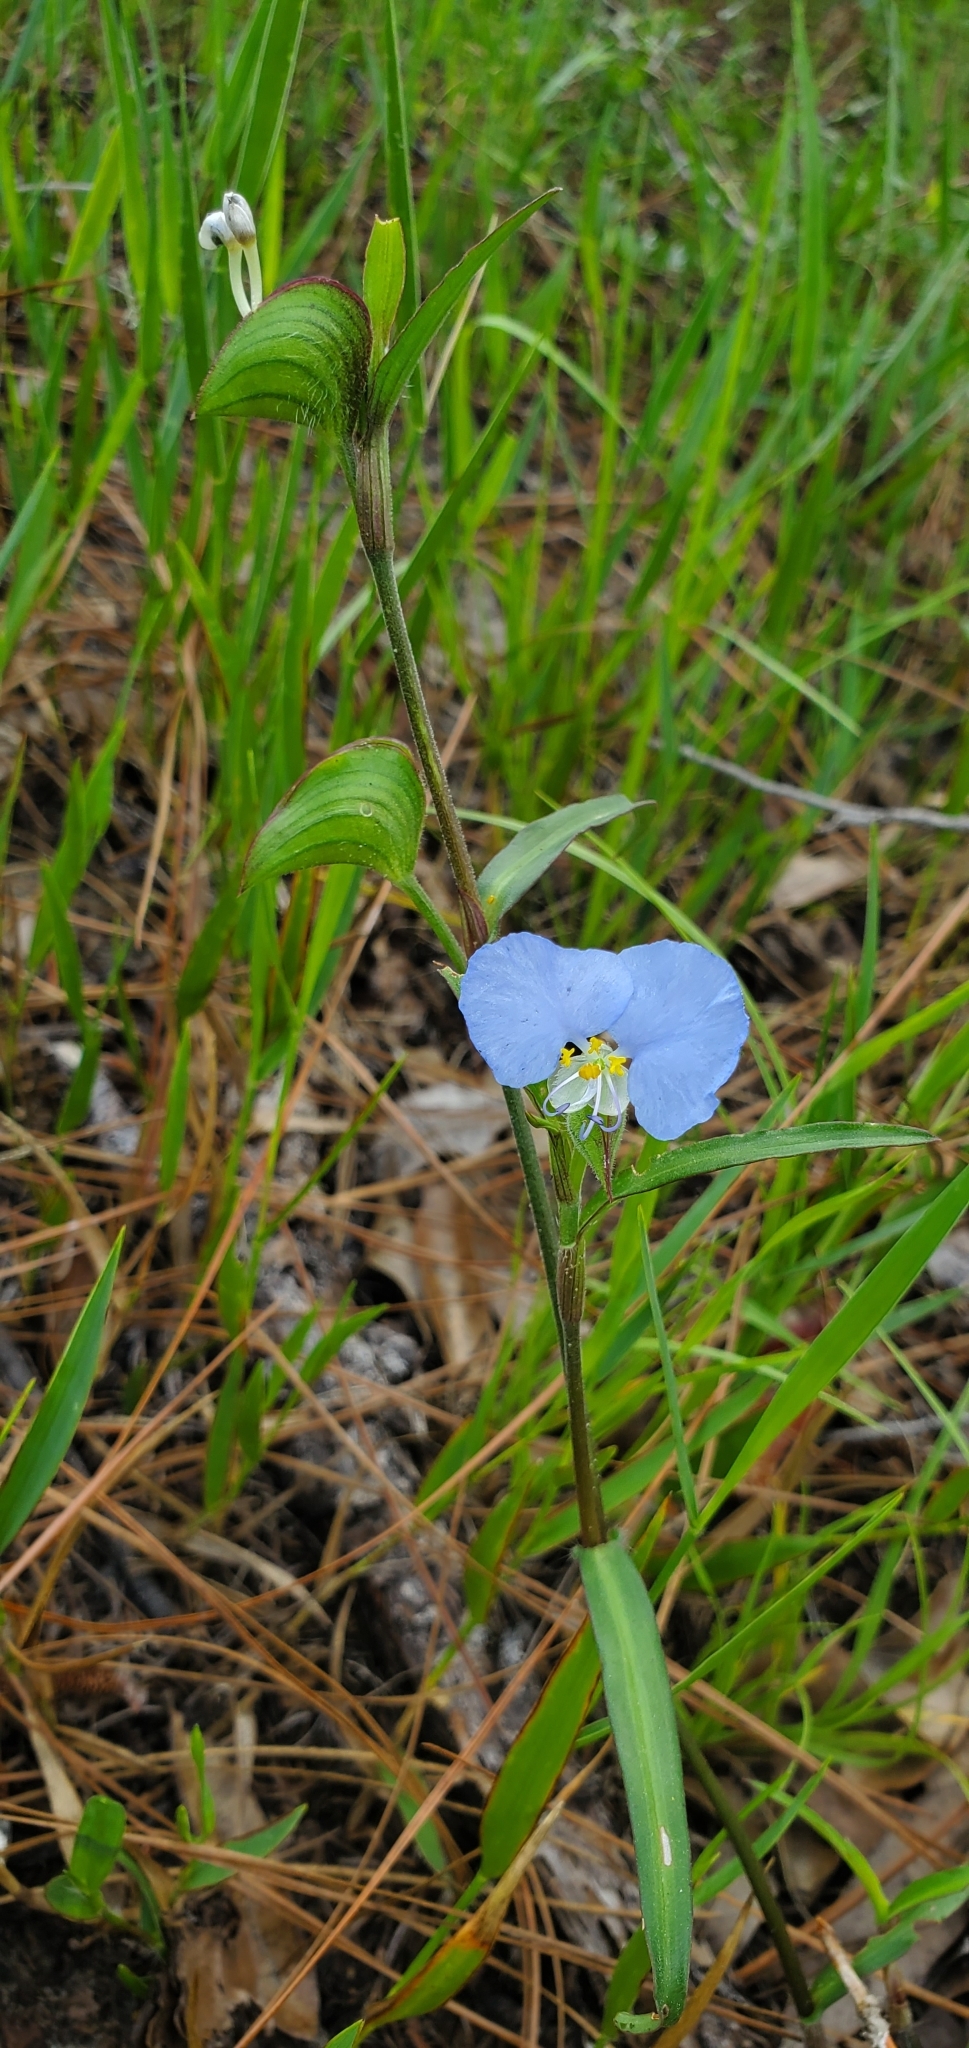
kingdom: Plantae
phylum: Tracheophyta
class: Liliopsida
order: Commelinales
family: Commelinaceae
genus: Commelina
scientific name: Commelina erecta
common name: Blousel blommetjie
